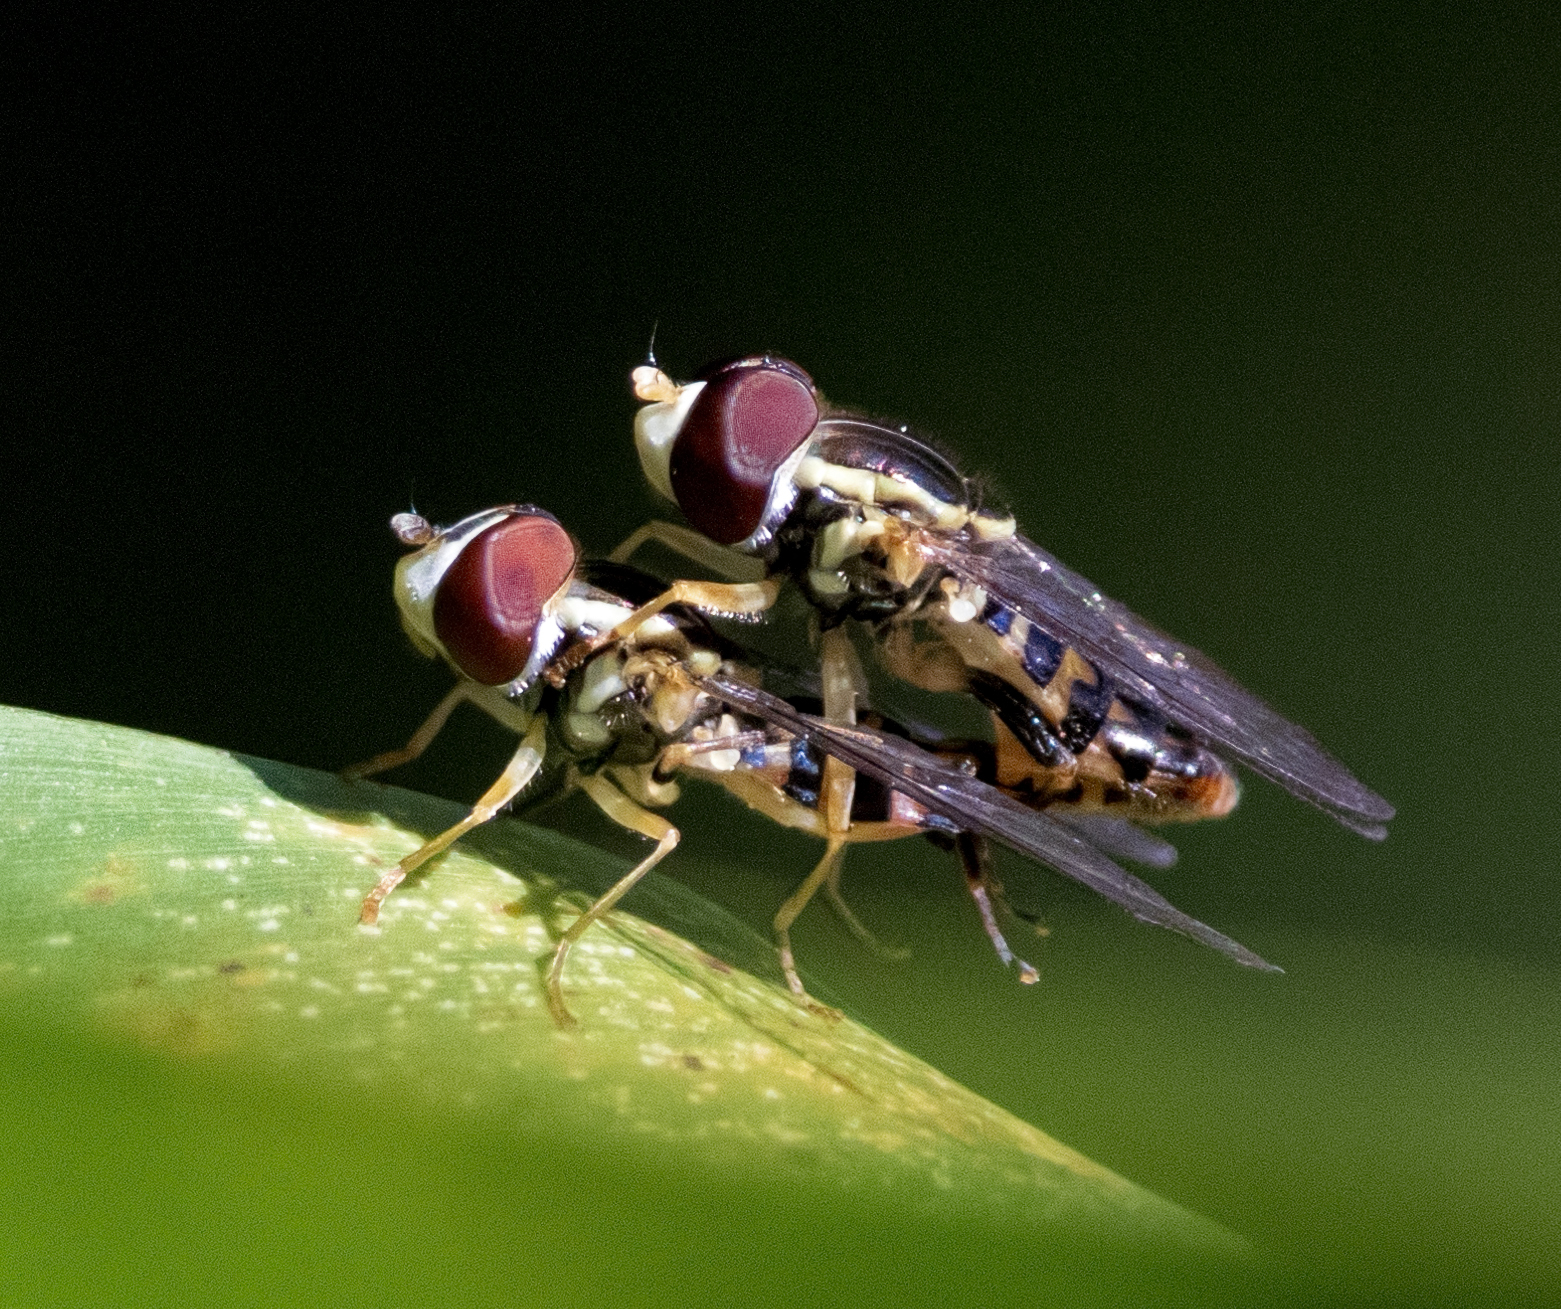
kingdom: Animalia
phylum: Arthropoda
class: Insecta
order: Diptera
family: Syrphidae
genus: Toxomerus
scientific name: Toxomerus geminatus
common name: Eastern calligrapher
